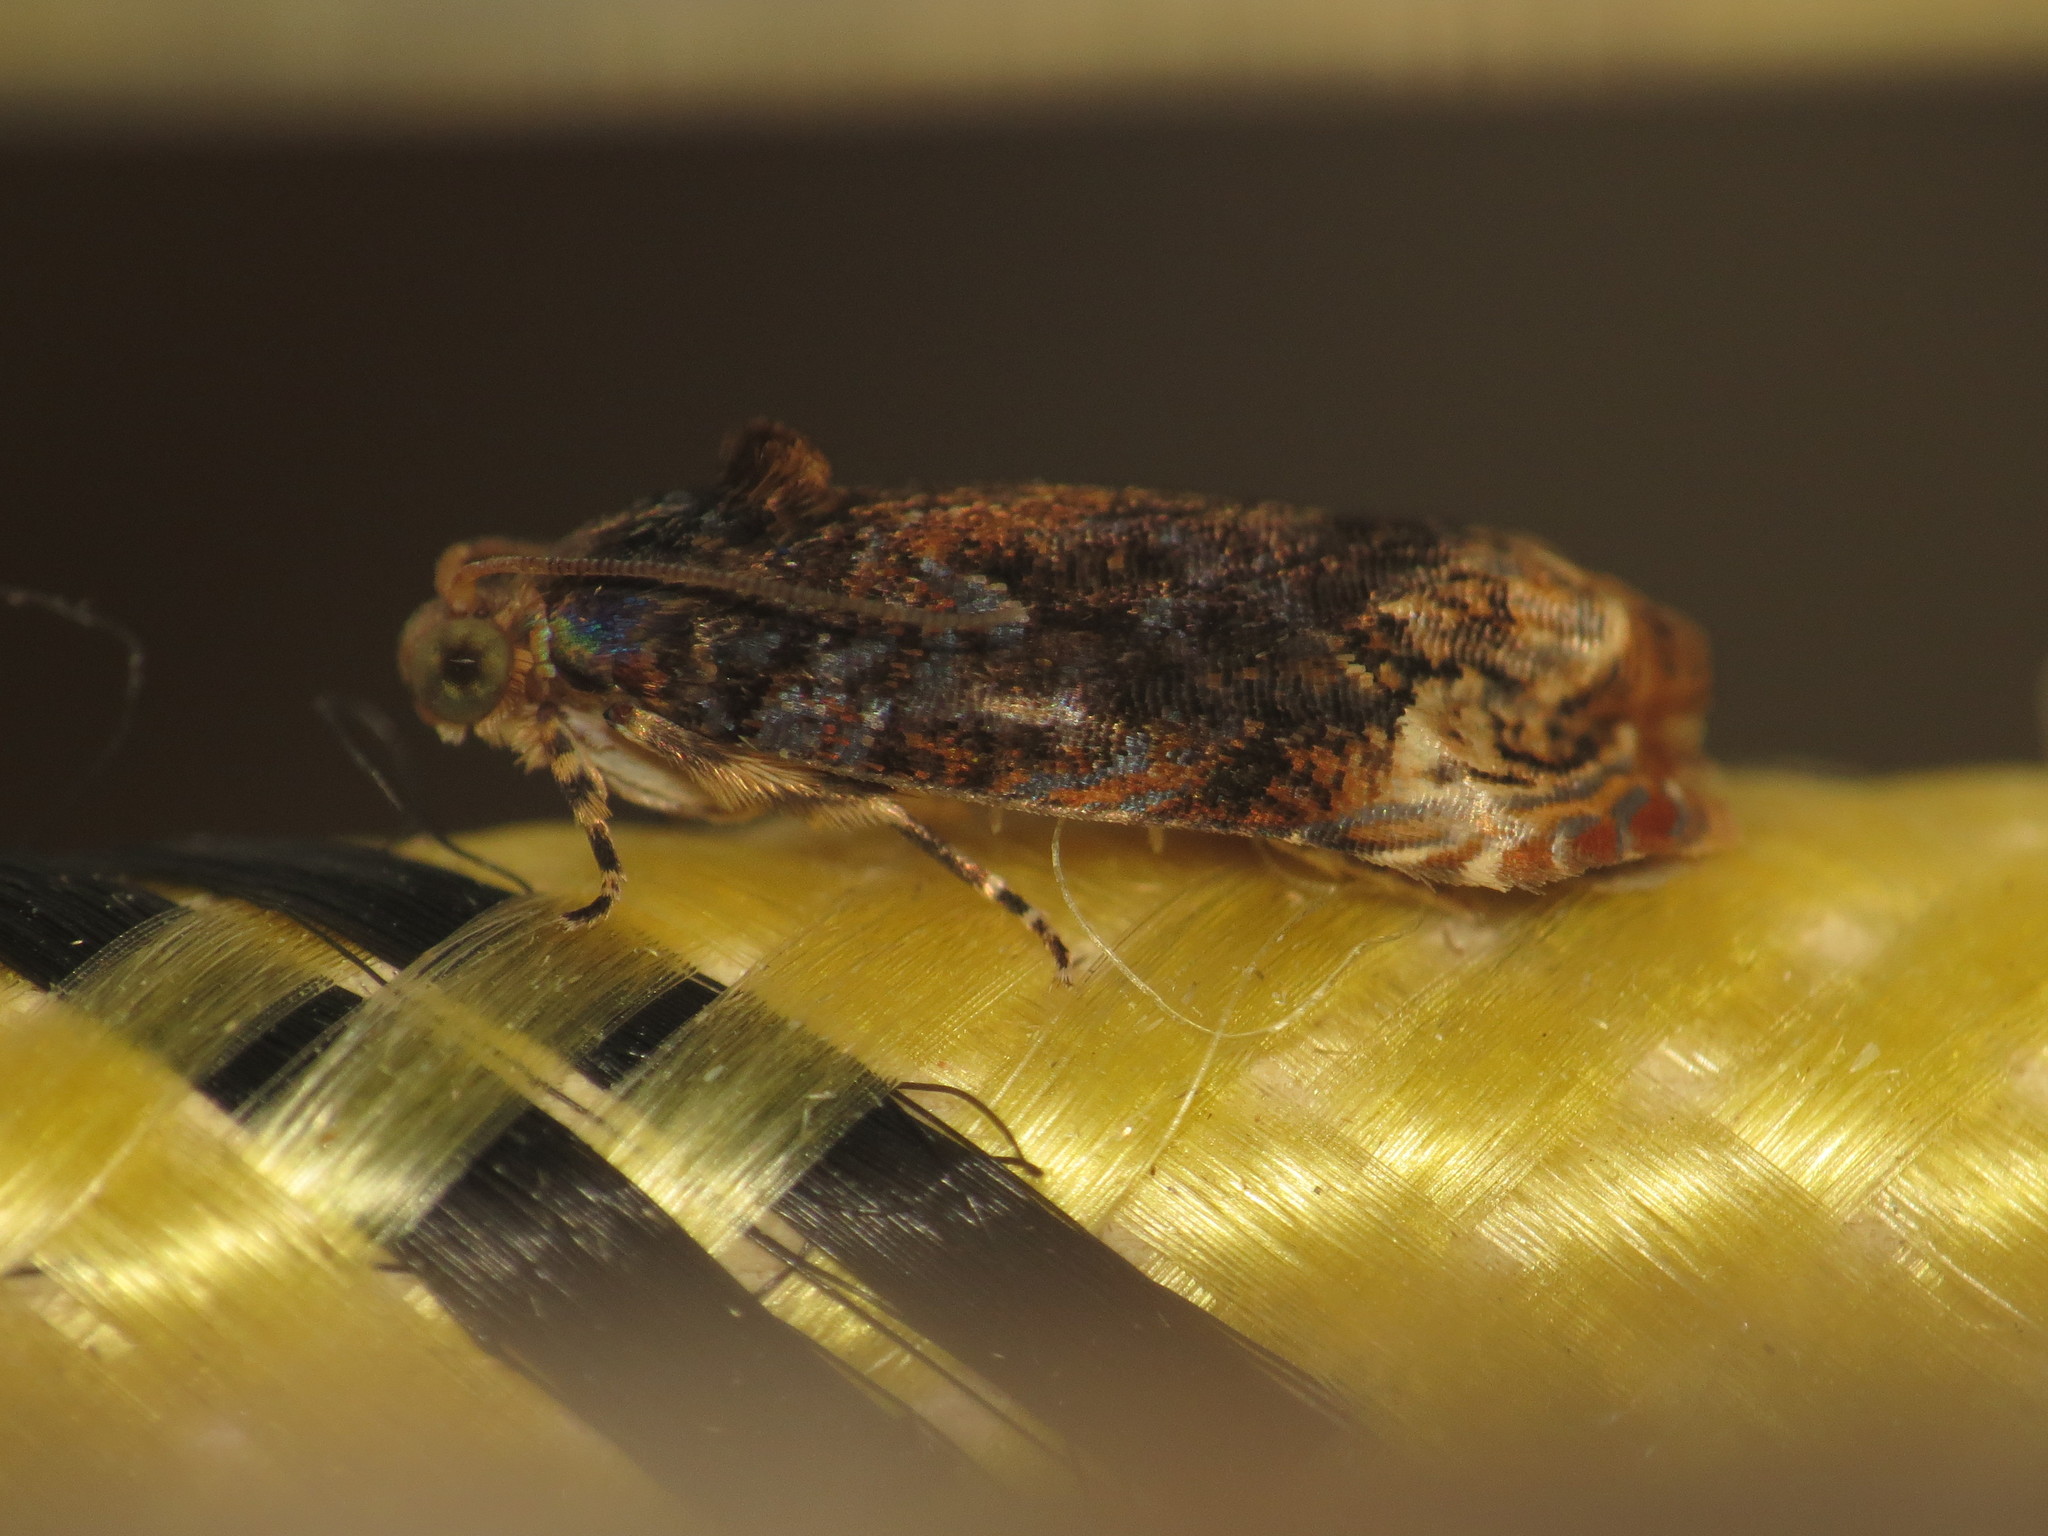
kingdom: Animalia
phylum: Arthropoda
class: Insecta
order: Lepidoptera
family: Tortricidae
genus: Helictophanes
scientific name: Helictophanes prospera
